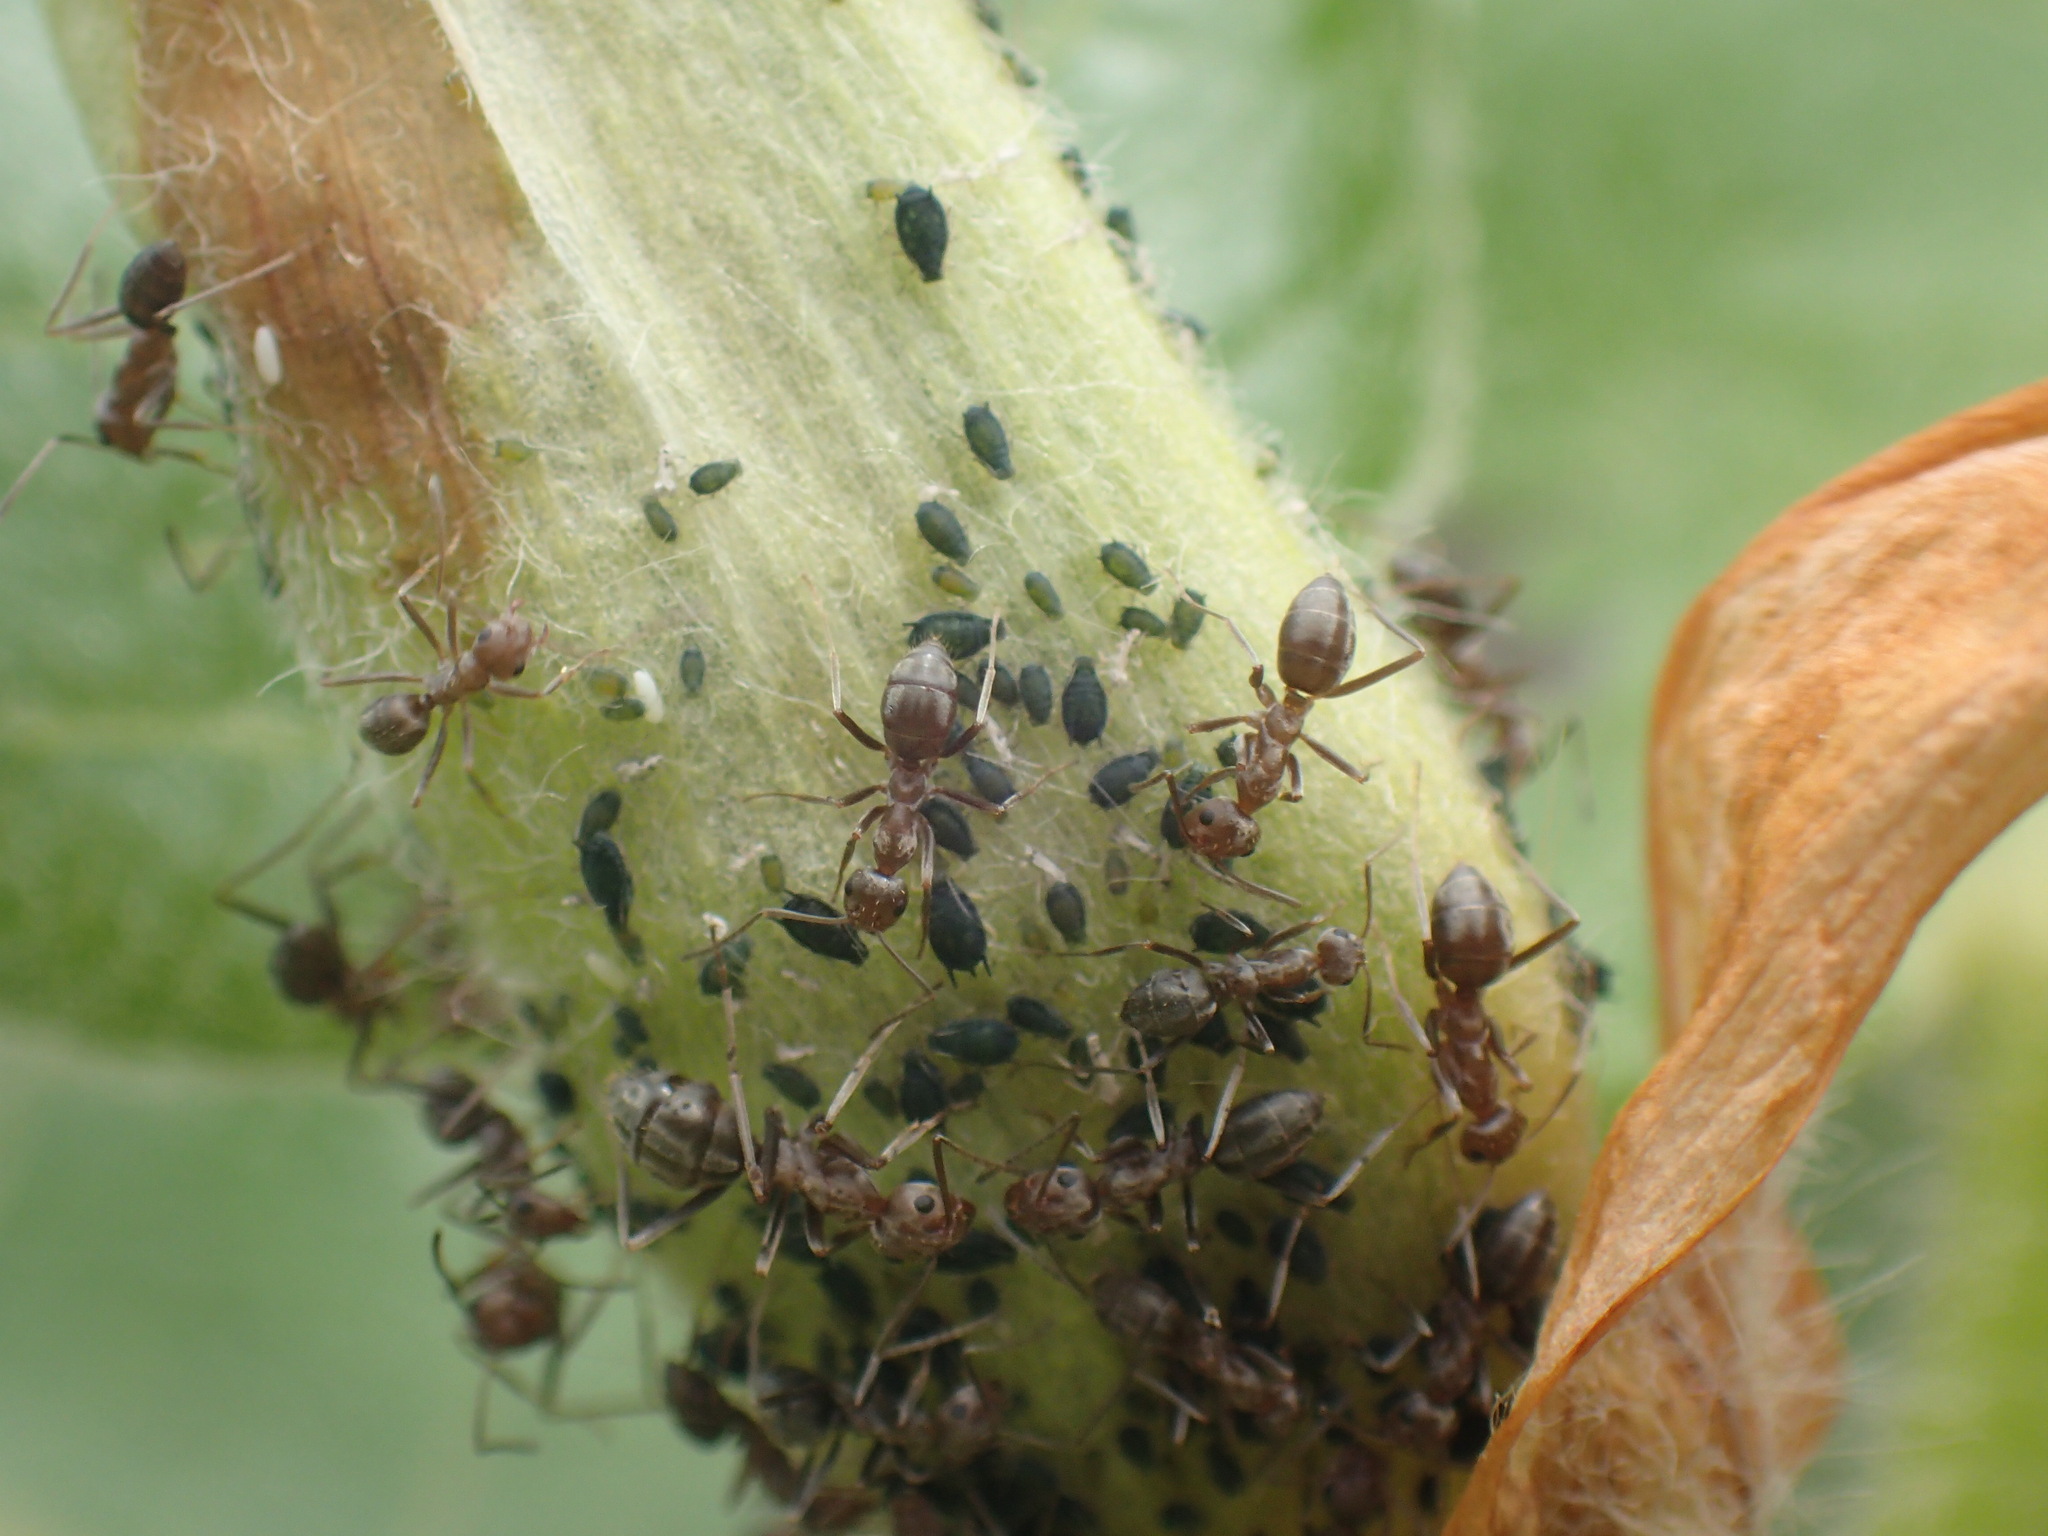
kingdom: Animalia
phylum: Arthropoda
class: Insecta
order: Hymenoptera
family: Formicidae
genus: Anoplolepis
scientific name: Anoplolepis custodiens
